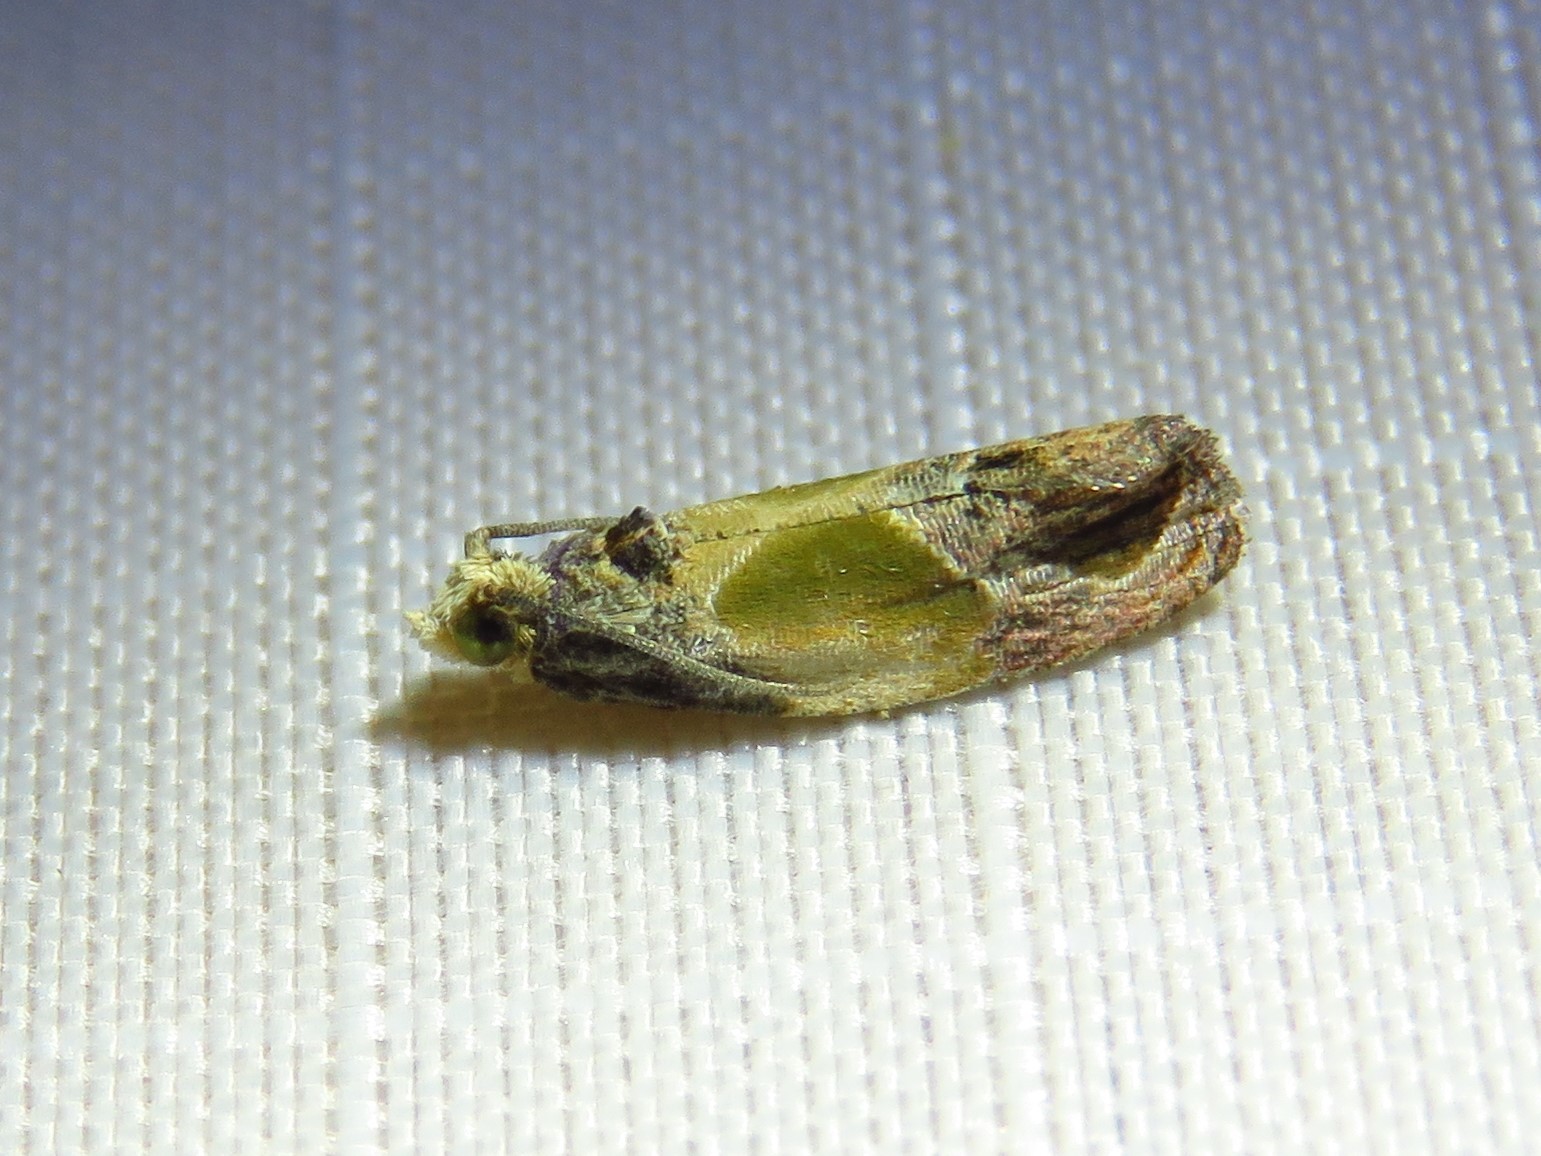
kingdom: Animalia
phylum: Arthropoda
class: Insecta
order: Lepidoptera
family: Tortricidae
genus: Eumarozia
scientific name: Eumarozia malachitana
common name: Sculptured moth
